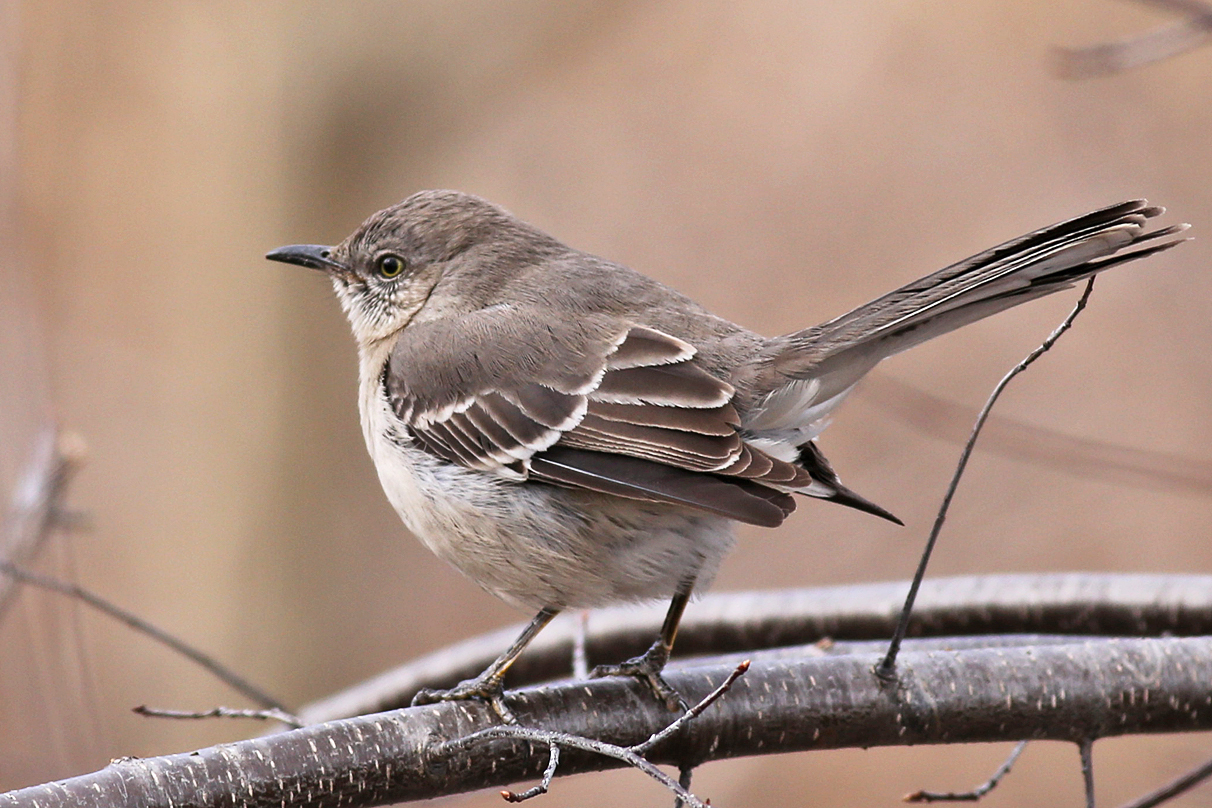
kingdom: Animalia
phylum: Chordata
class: Aves
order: Passeriformes
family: Mimidae
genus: Mimus
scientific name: Mimus polyglottos
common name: Northern mockingbird
